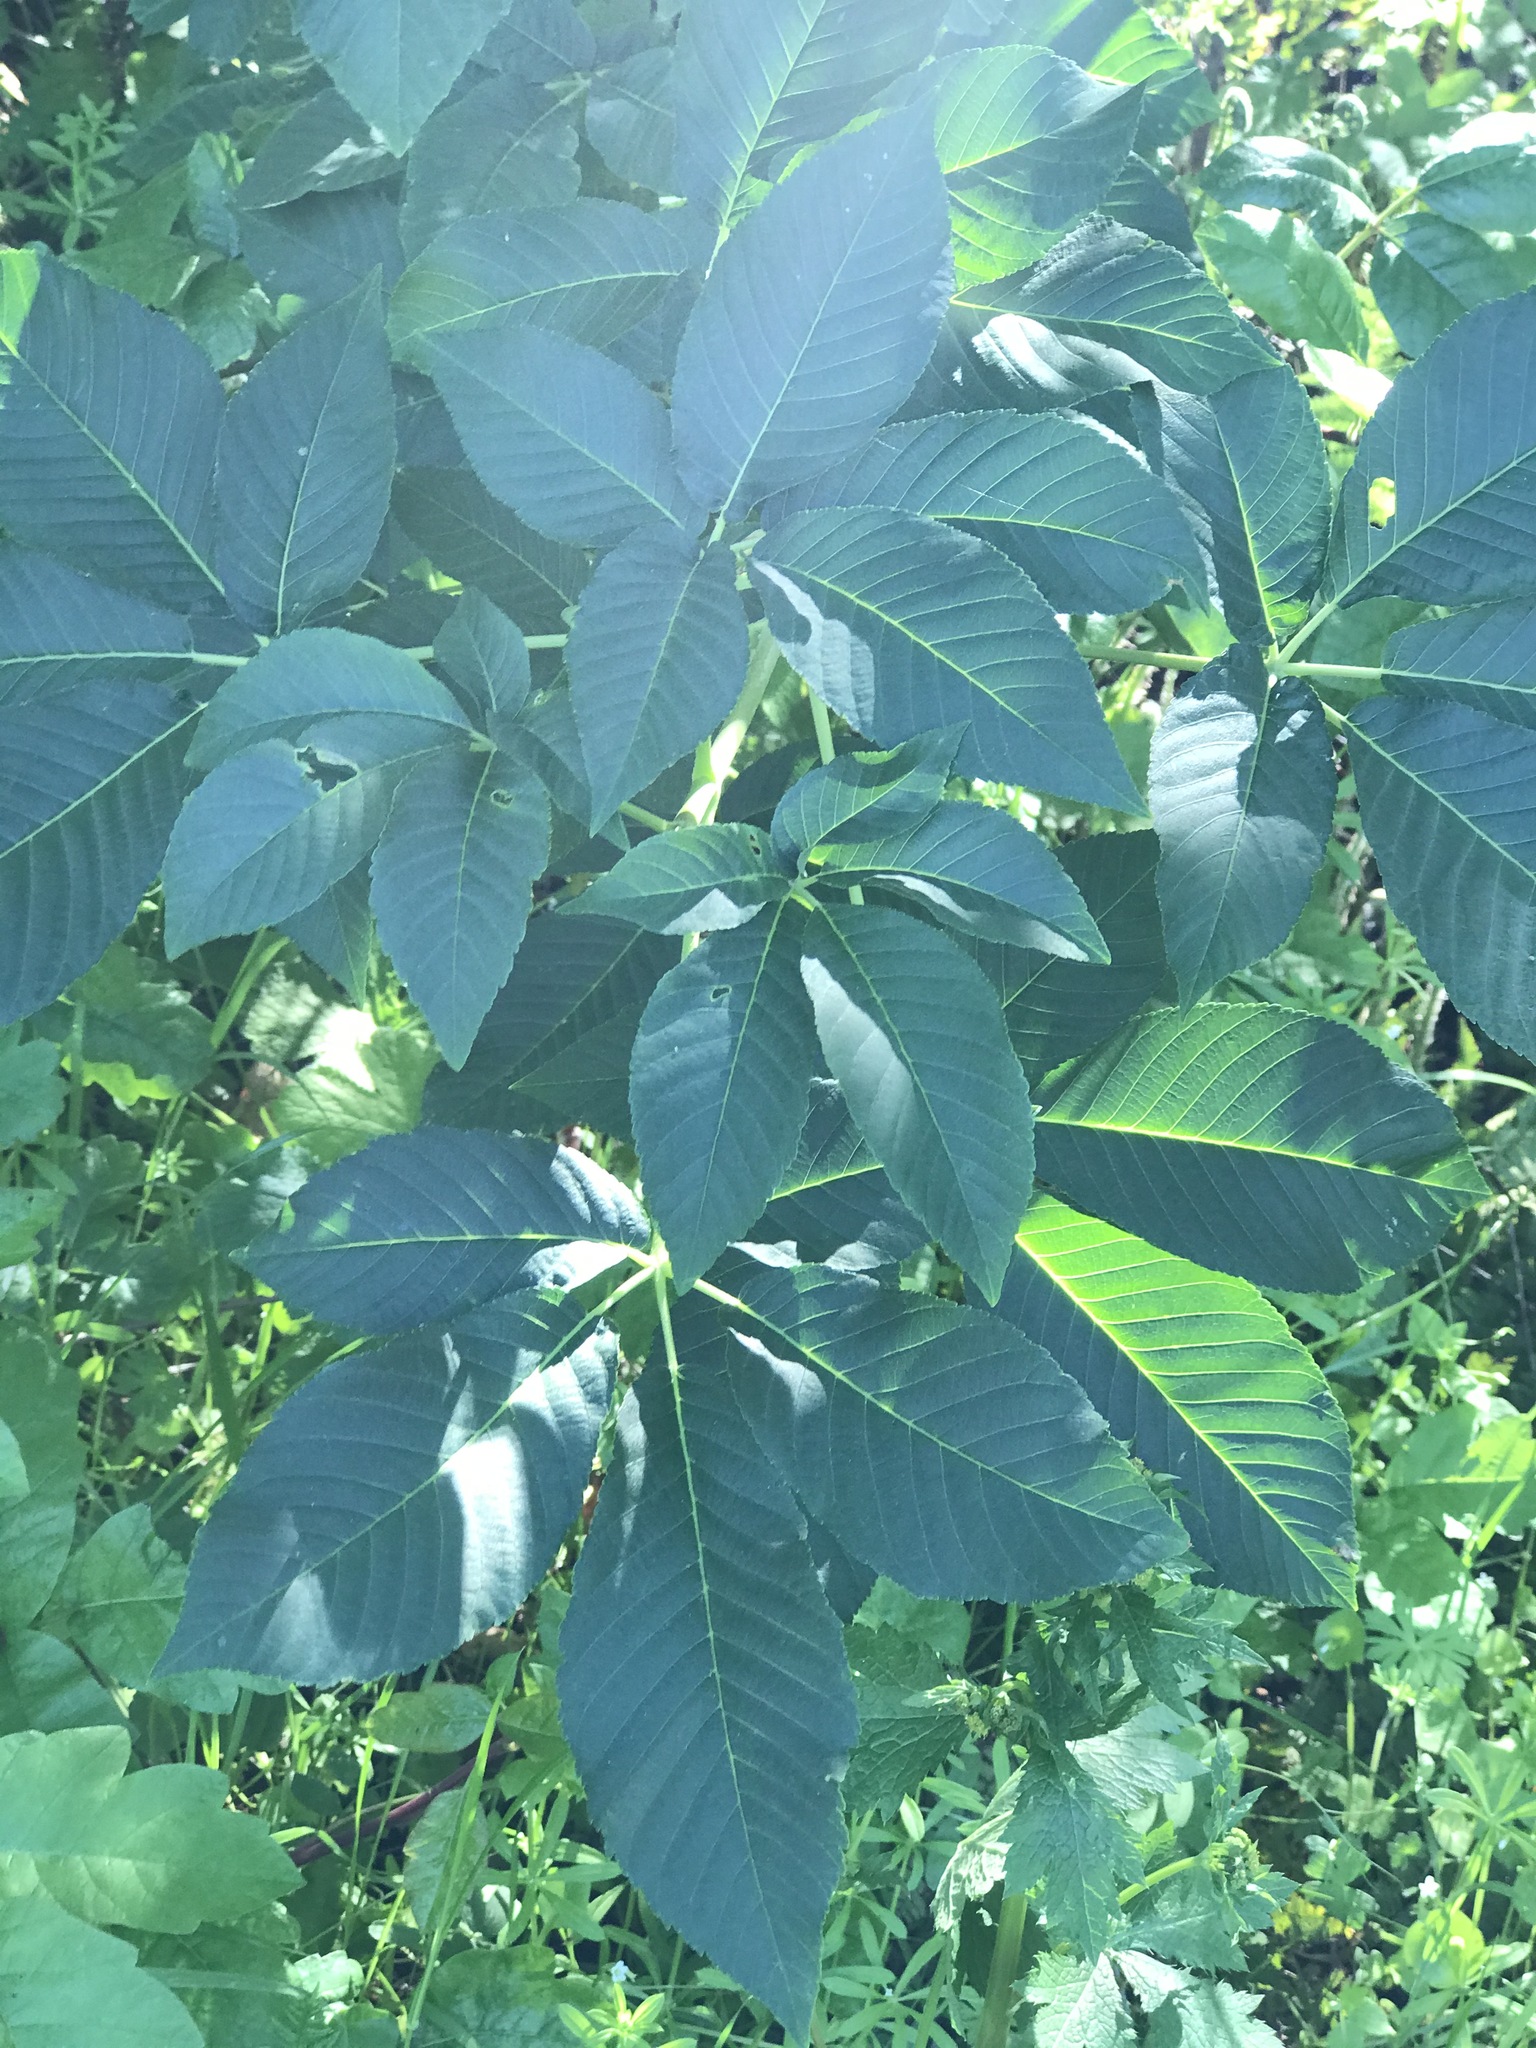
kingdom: Plantae
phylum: Tracheophyta
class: Magnoliopsida
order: Sapindales
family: Sapindaceae
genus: Aesculus
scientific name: Aesculus californica
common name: California buckeye
